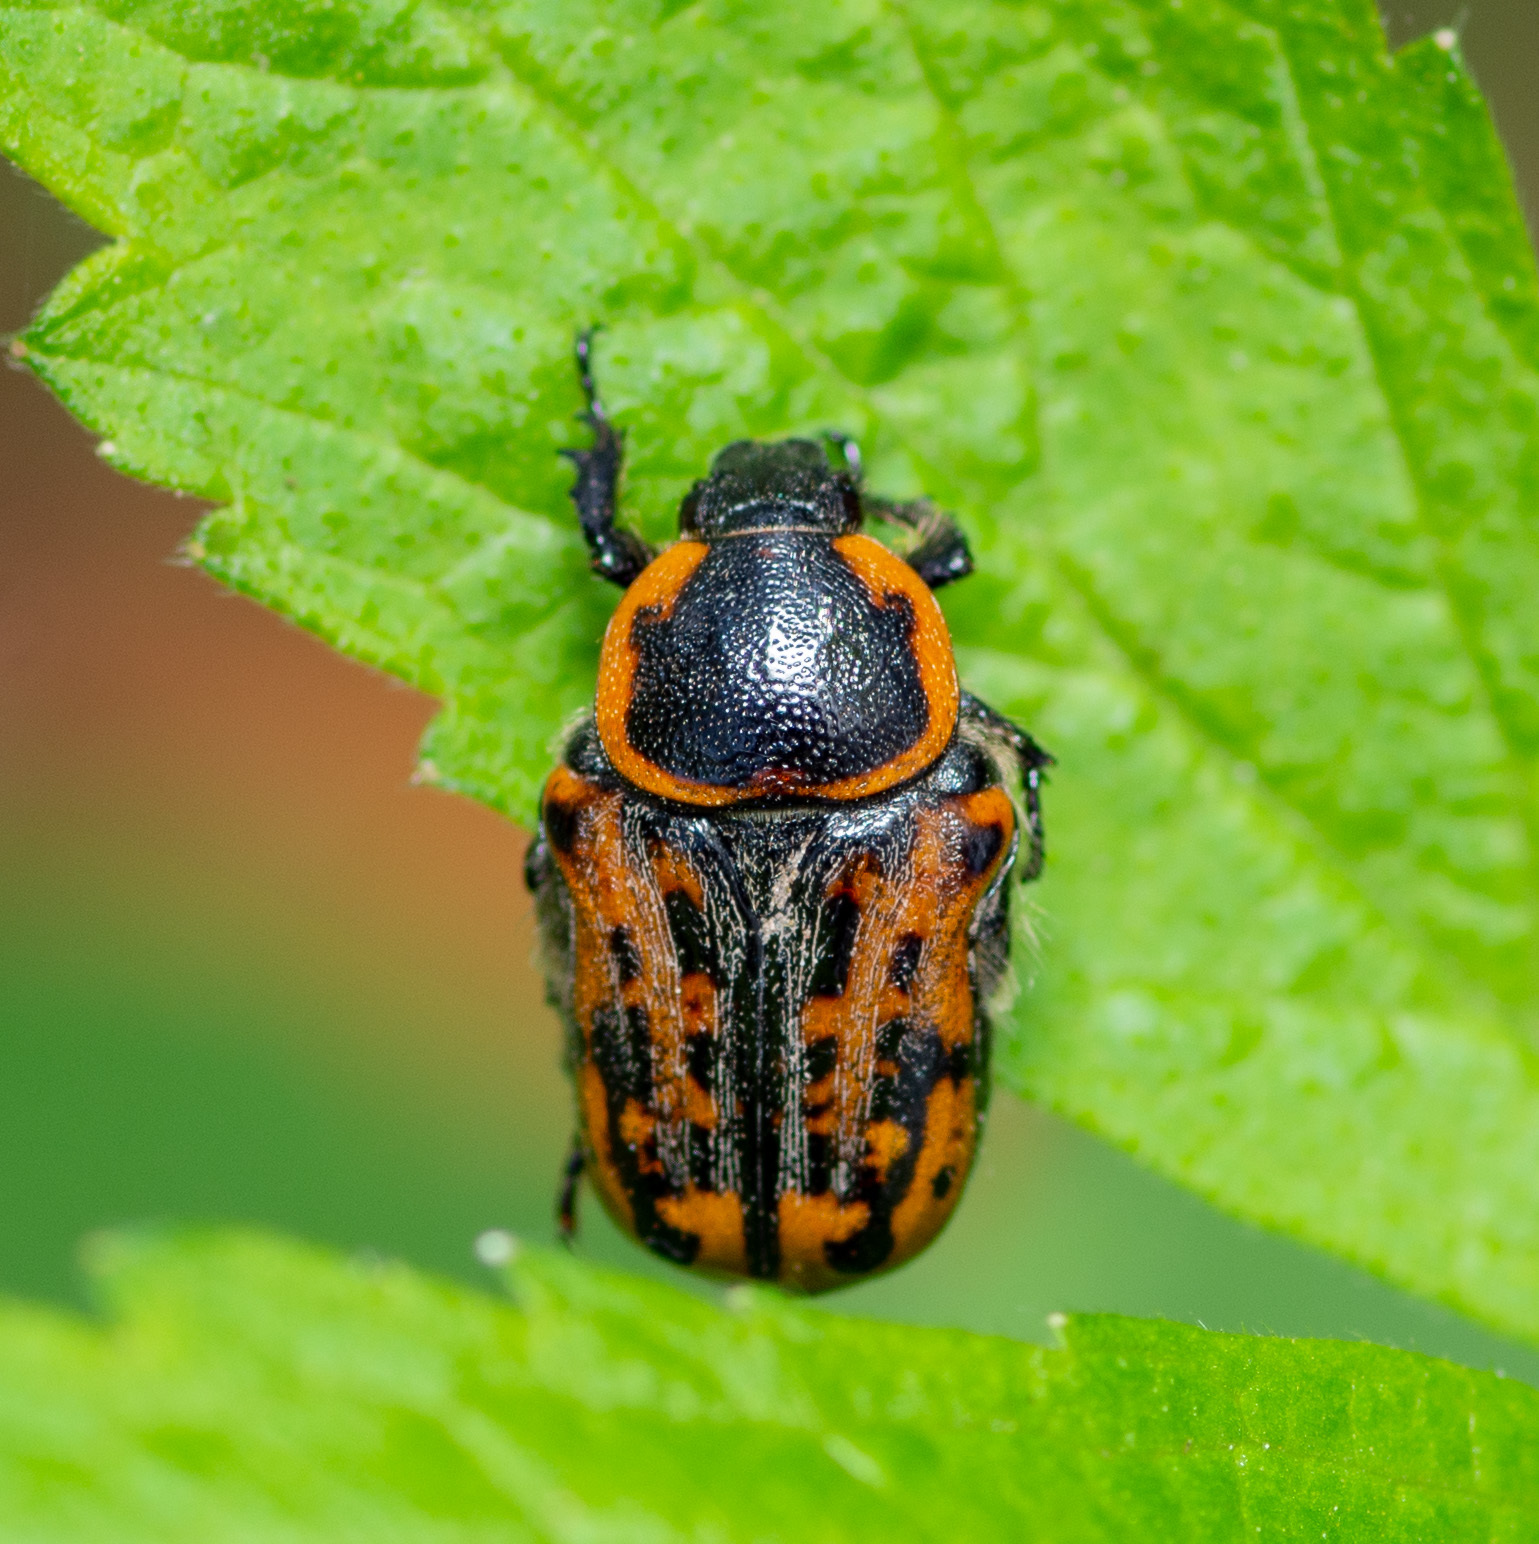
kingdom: Animalia
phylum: Arthropoda
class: Insecta
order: Coleoptera
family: Scarabaeidae
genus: Euphoria
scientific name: Euphoria kernii
